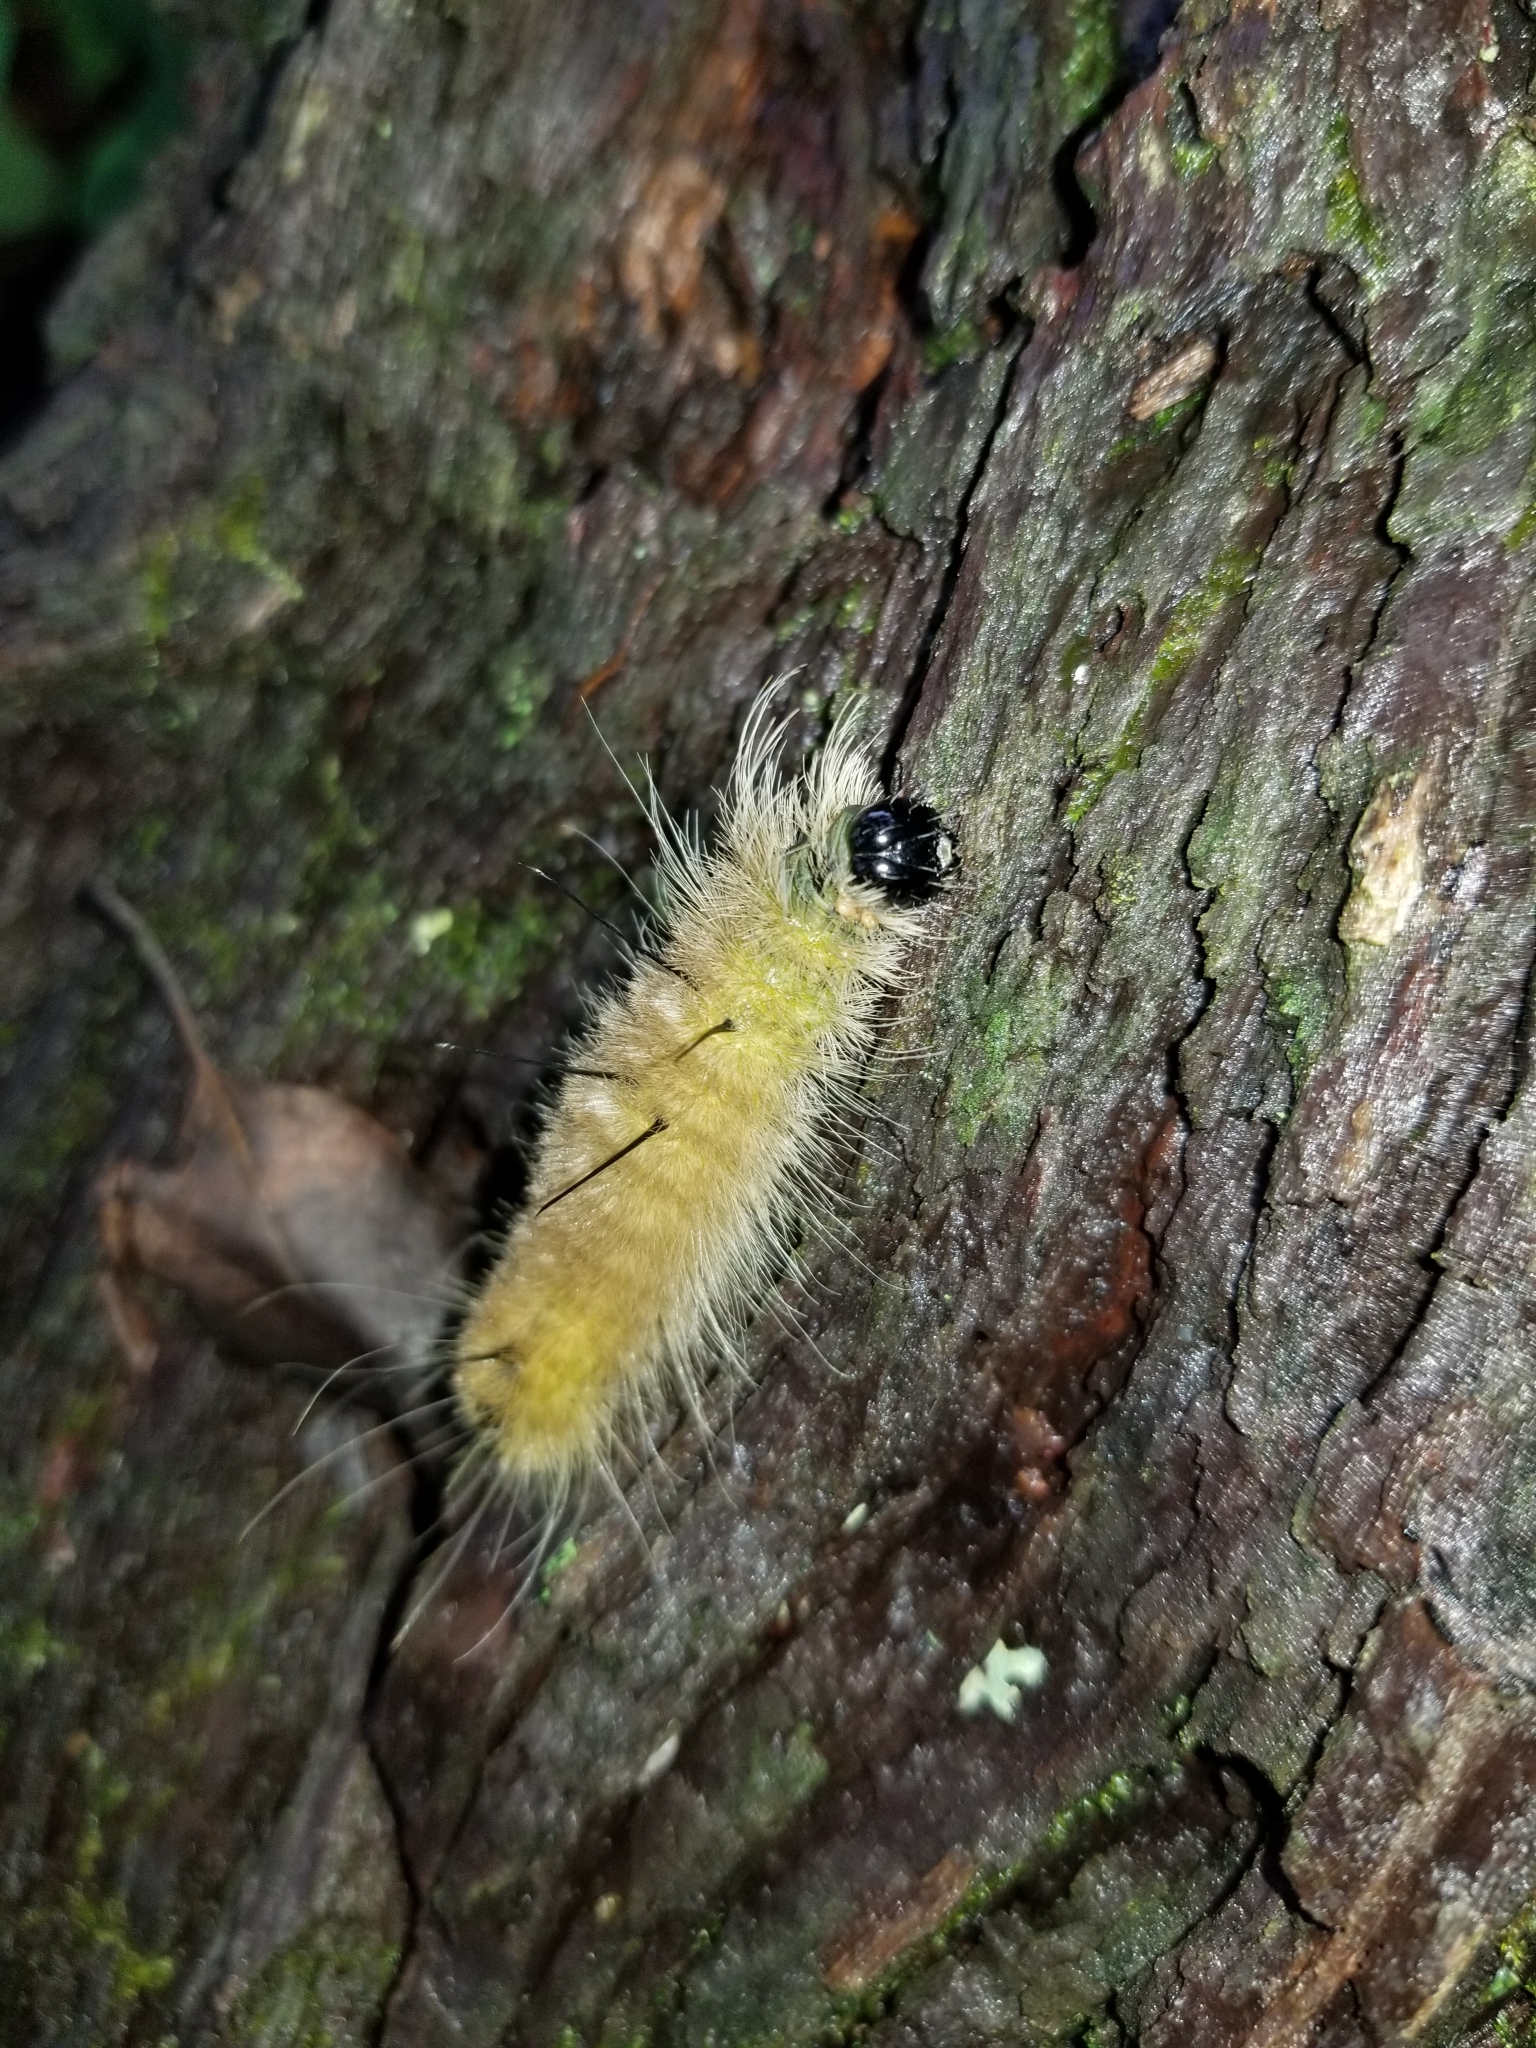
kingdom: Animalia
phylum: Arthropoda
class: Insecta
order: Lepidoptera
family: Noctuidae
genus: Acronicta
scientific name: Acronicta americana
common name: American dagger
